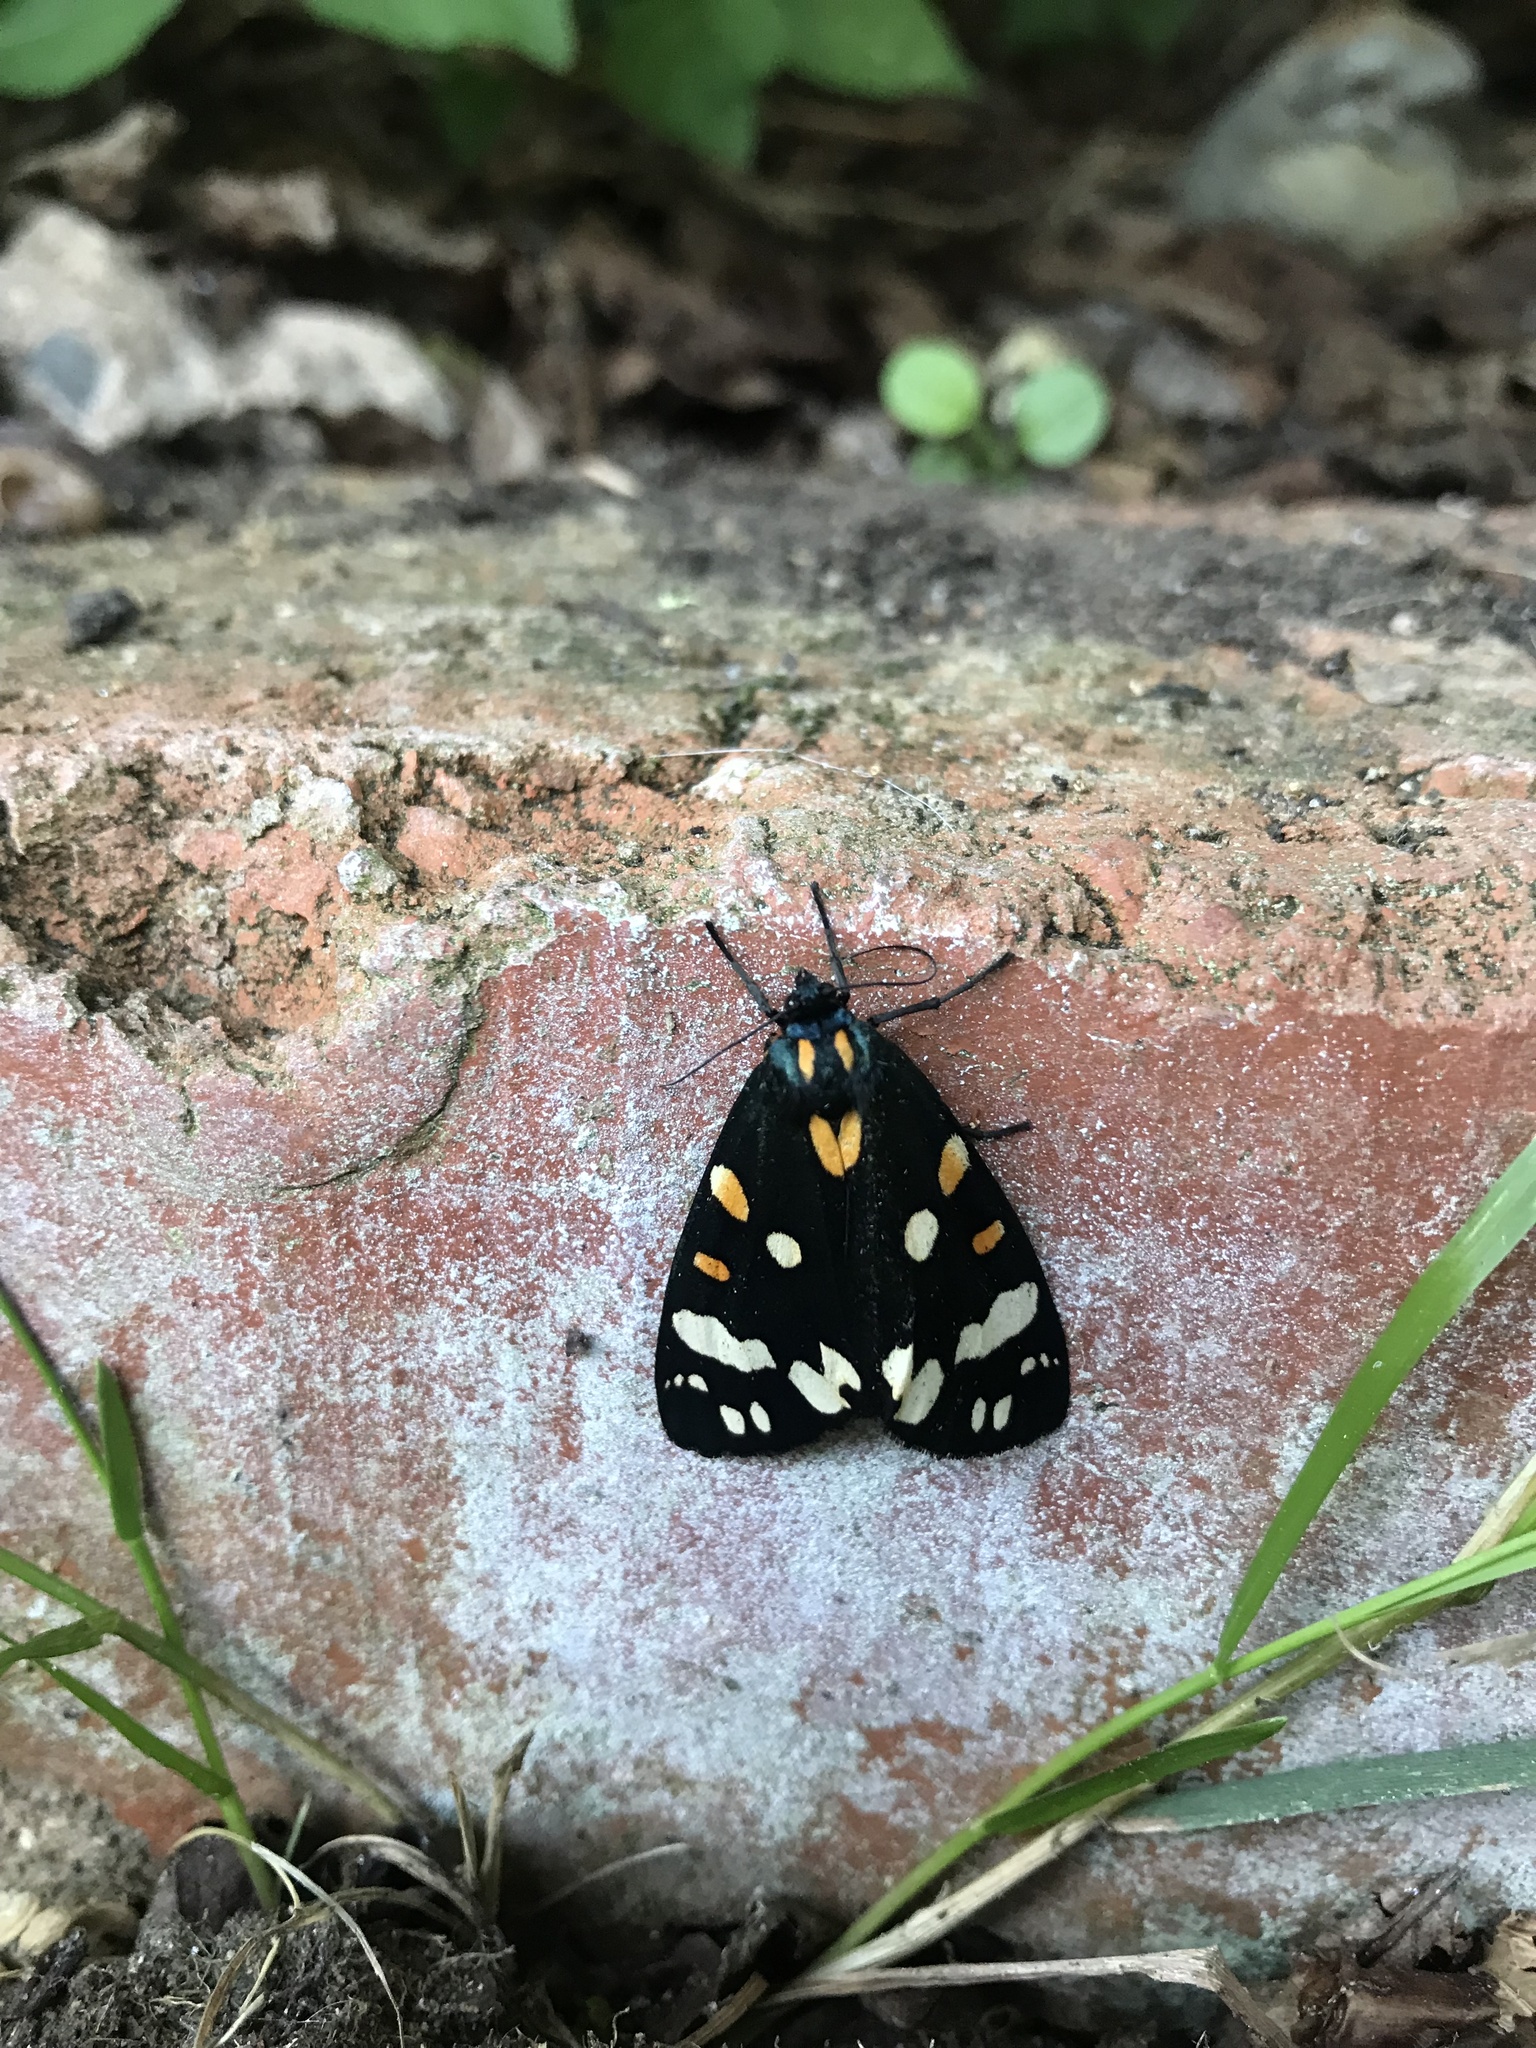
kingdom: Animalia
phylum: Arthropoda
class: Insecta
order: Lepidoptera
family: Erebidae
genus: Callimorpha
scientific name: Callimorpha dominula
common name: Scarlet tiger
